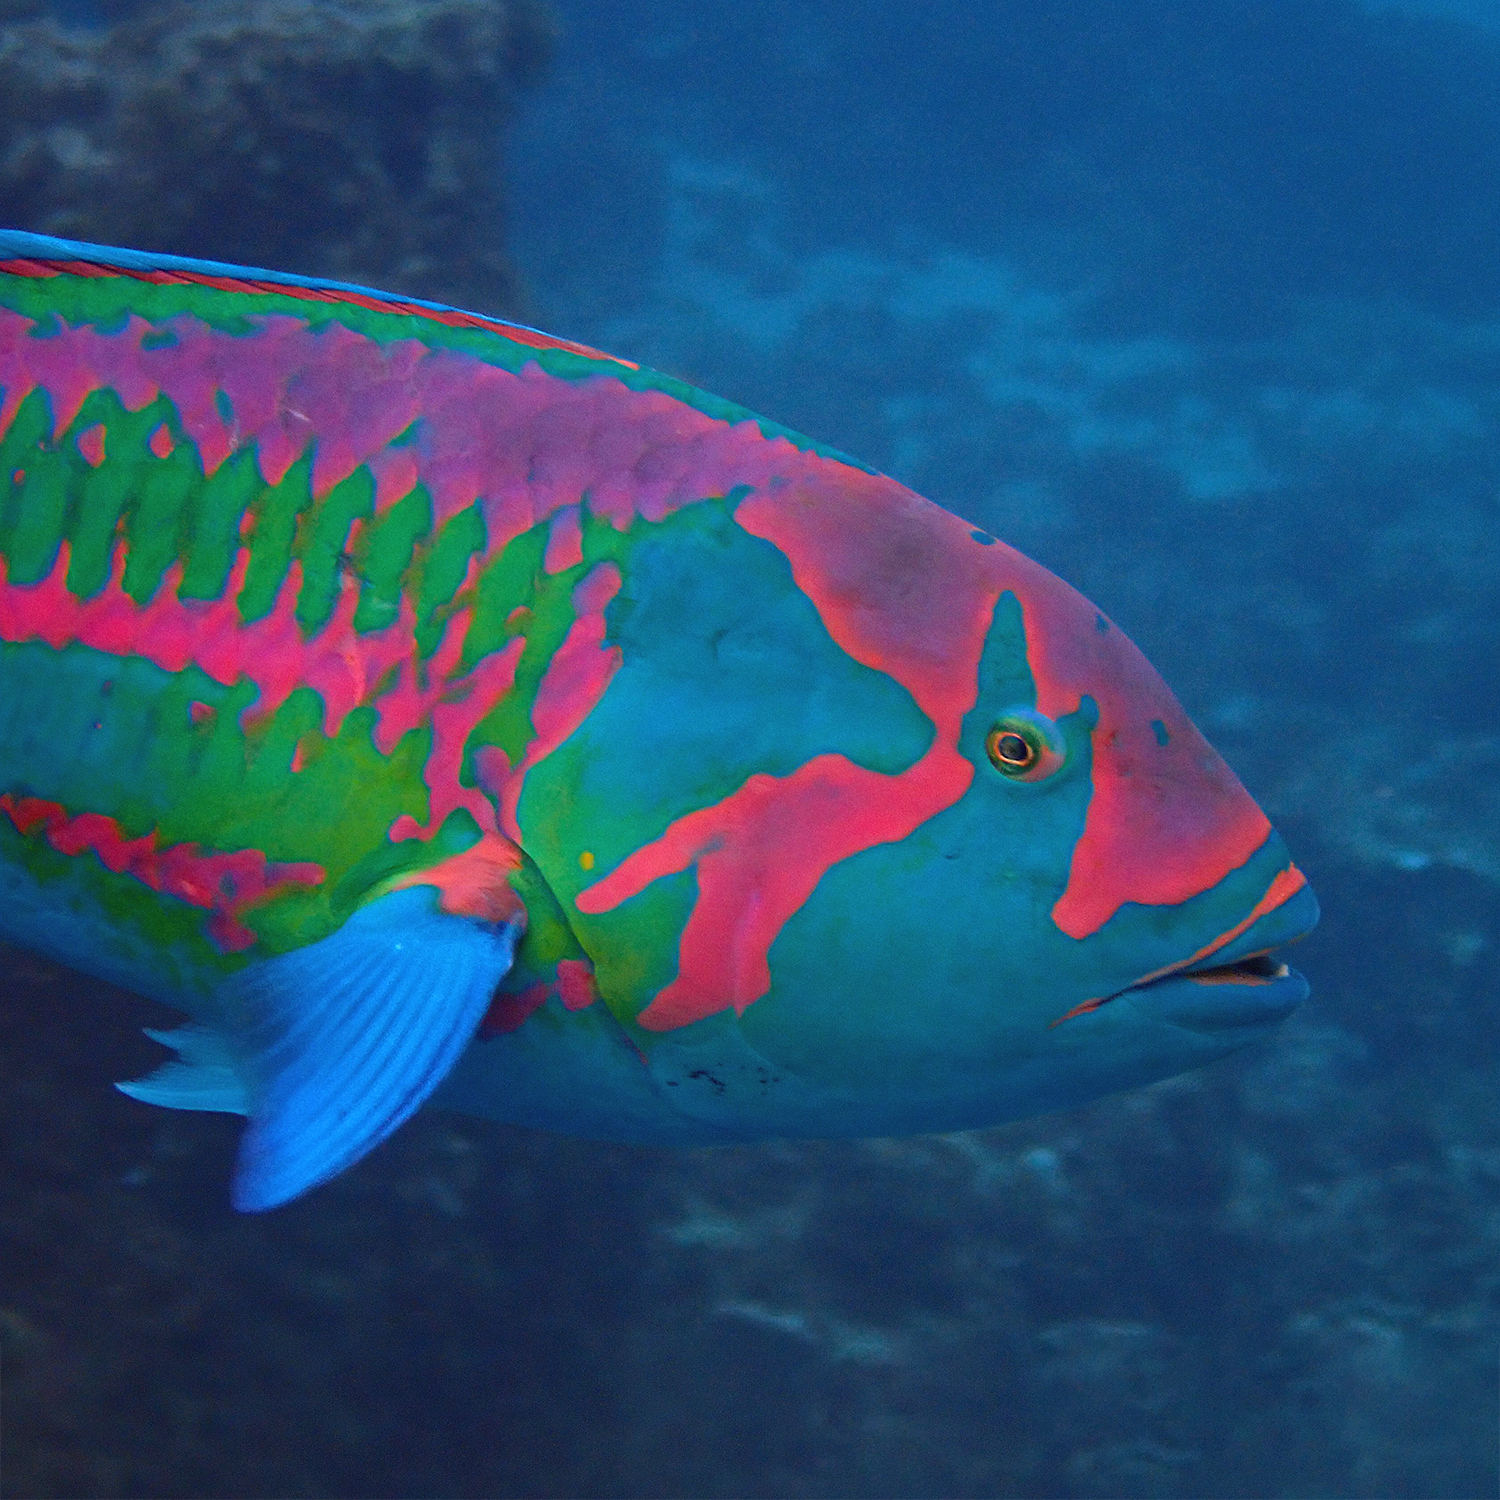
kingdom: Animalia
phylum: Chordata
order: Perciformes
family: Labridae
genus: Thalassoma
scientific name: Thalassoma purpureum
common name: Parrotfish
